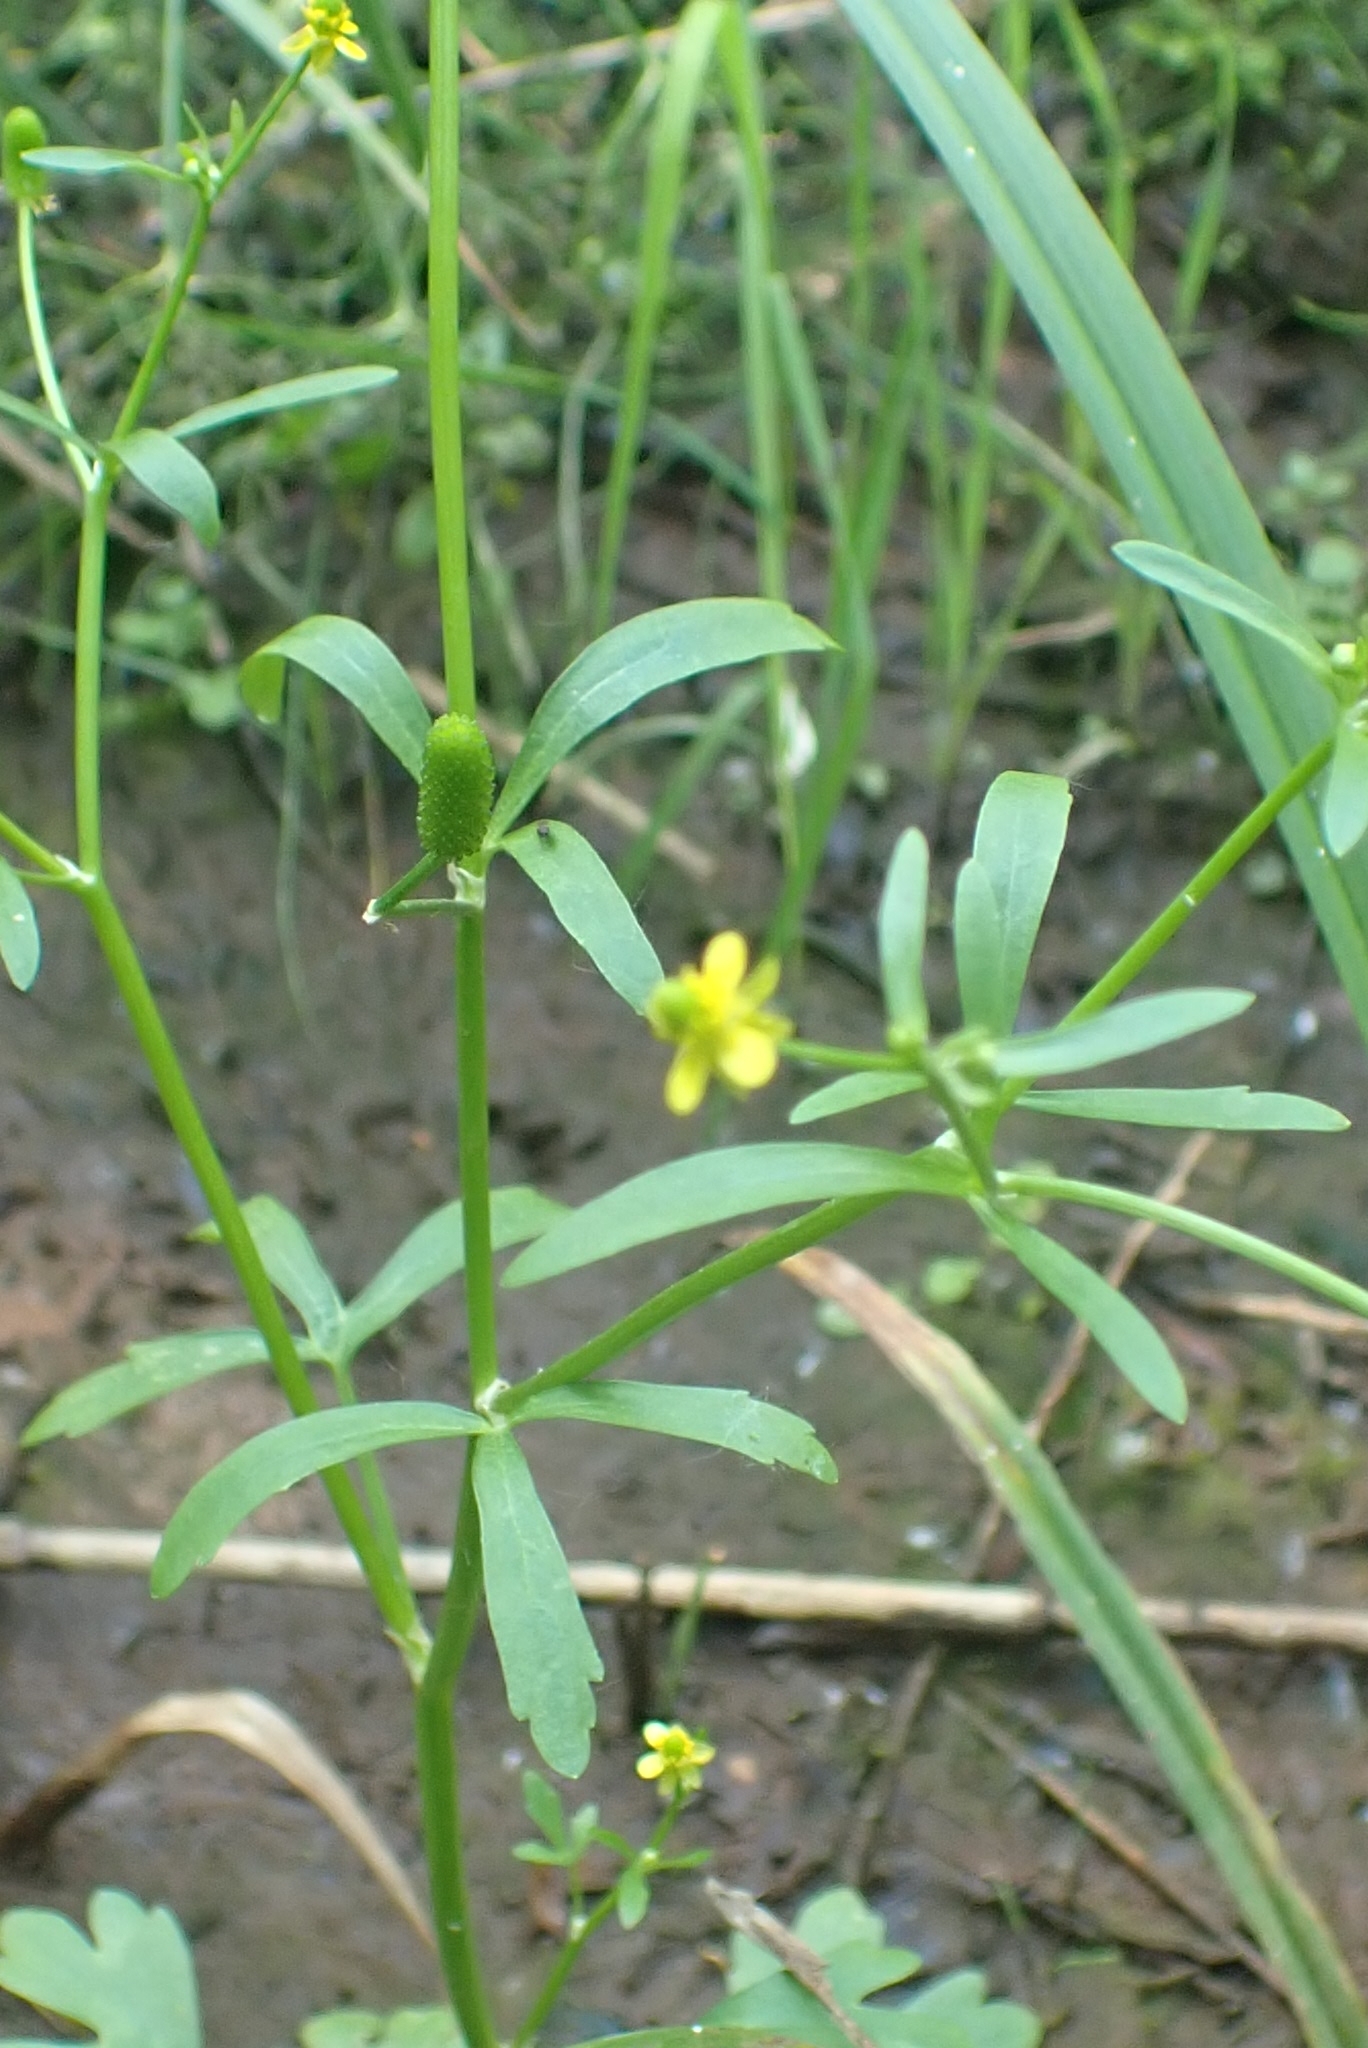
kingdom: Plantae
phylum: Tracheophyta
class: Magnoliopsida
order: Ranunculales
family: Ranunculaceae
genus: Ranunculus
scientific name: Ranunculus sceleratus
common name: Celery-leaved buttercup
